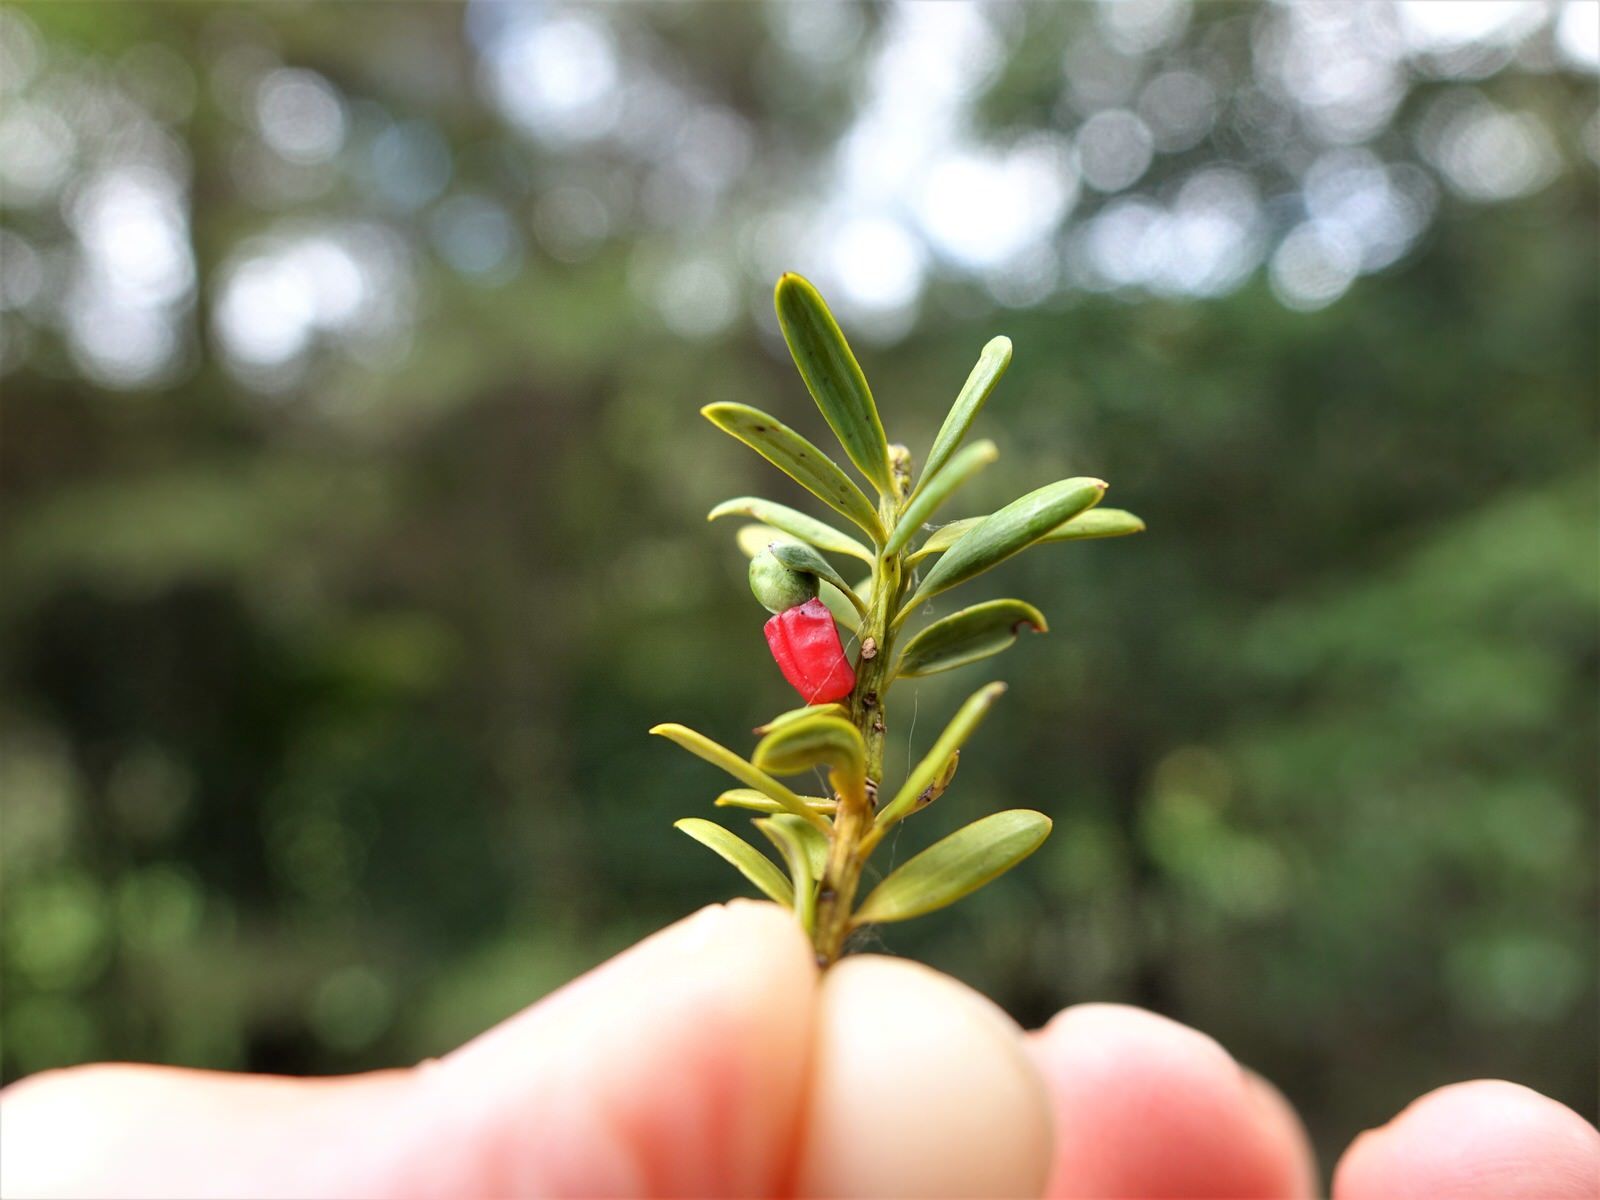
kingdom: Plantae
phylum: Tracheophyta
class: Pinopsida
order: Pinales
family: Podocarpaceae
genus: Podocarpus
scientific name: Podocarpus totara
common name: Totara
